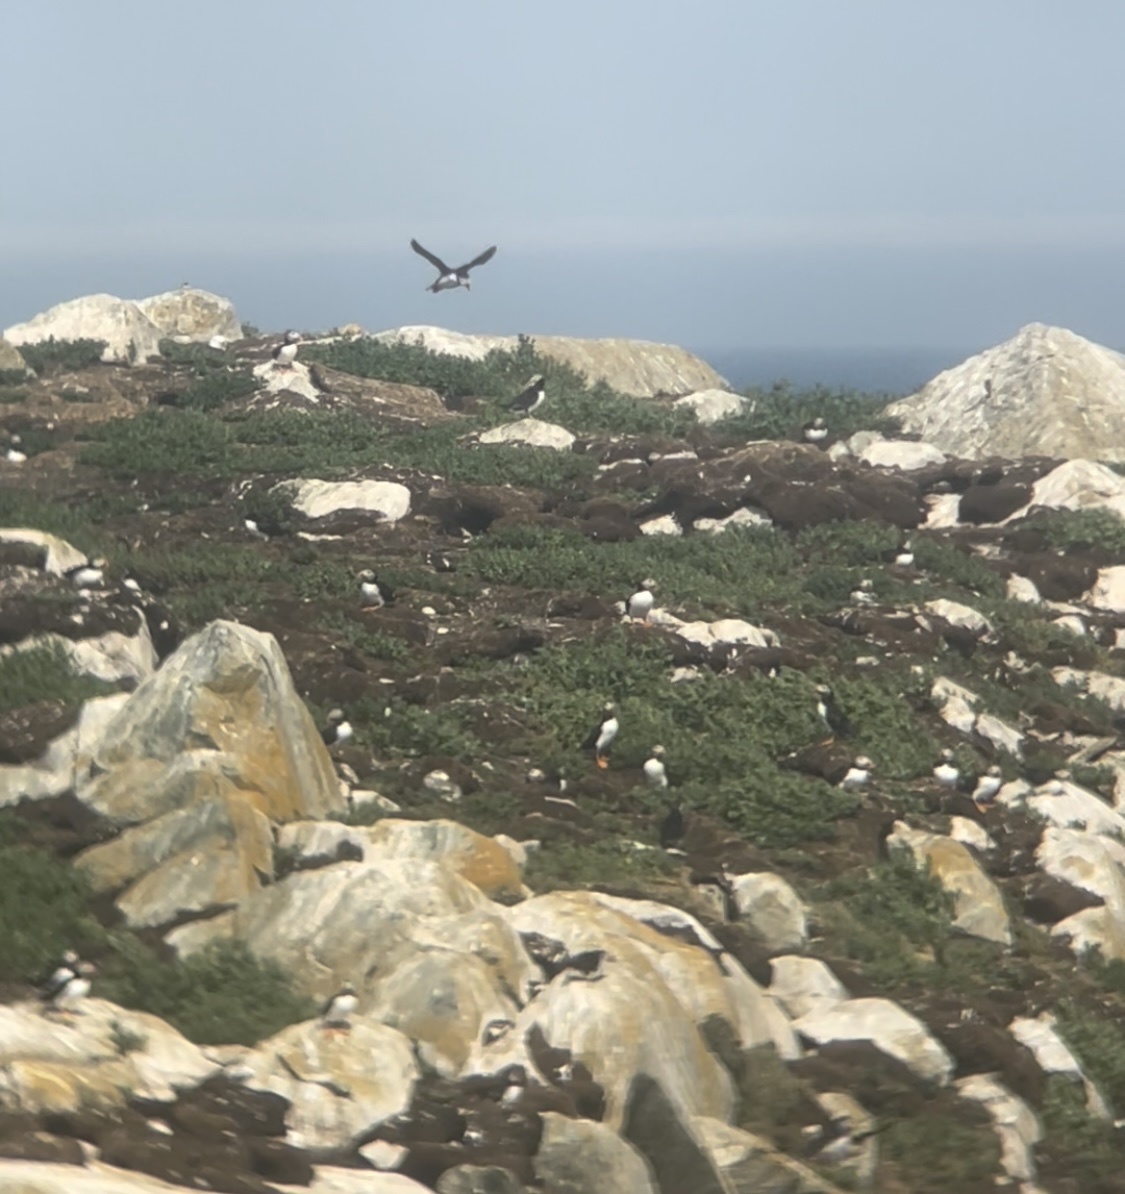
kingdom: Animalia
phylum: Chordata
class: Aves
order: Charadriiformes
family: Alcidae
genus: Fratercula
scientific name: Fratercula arctica
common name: Atlantic puffin
